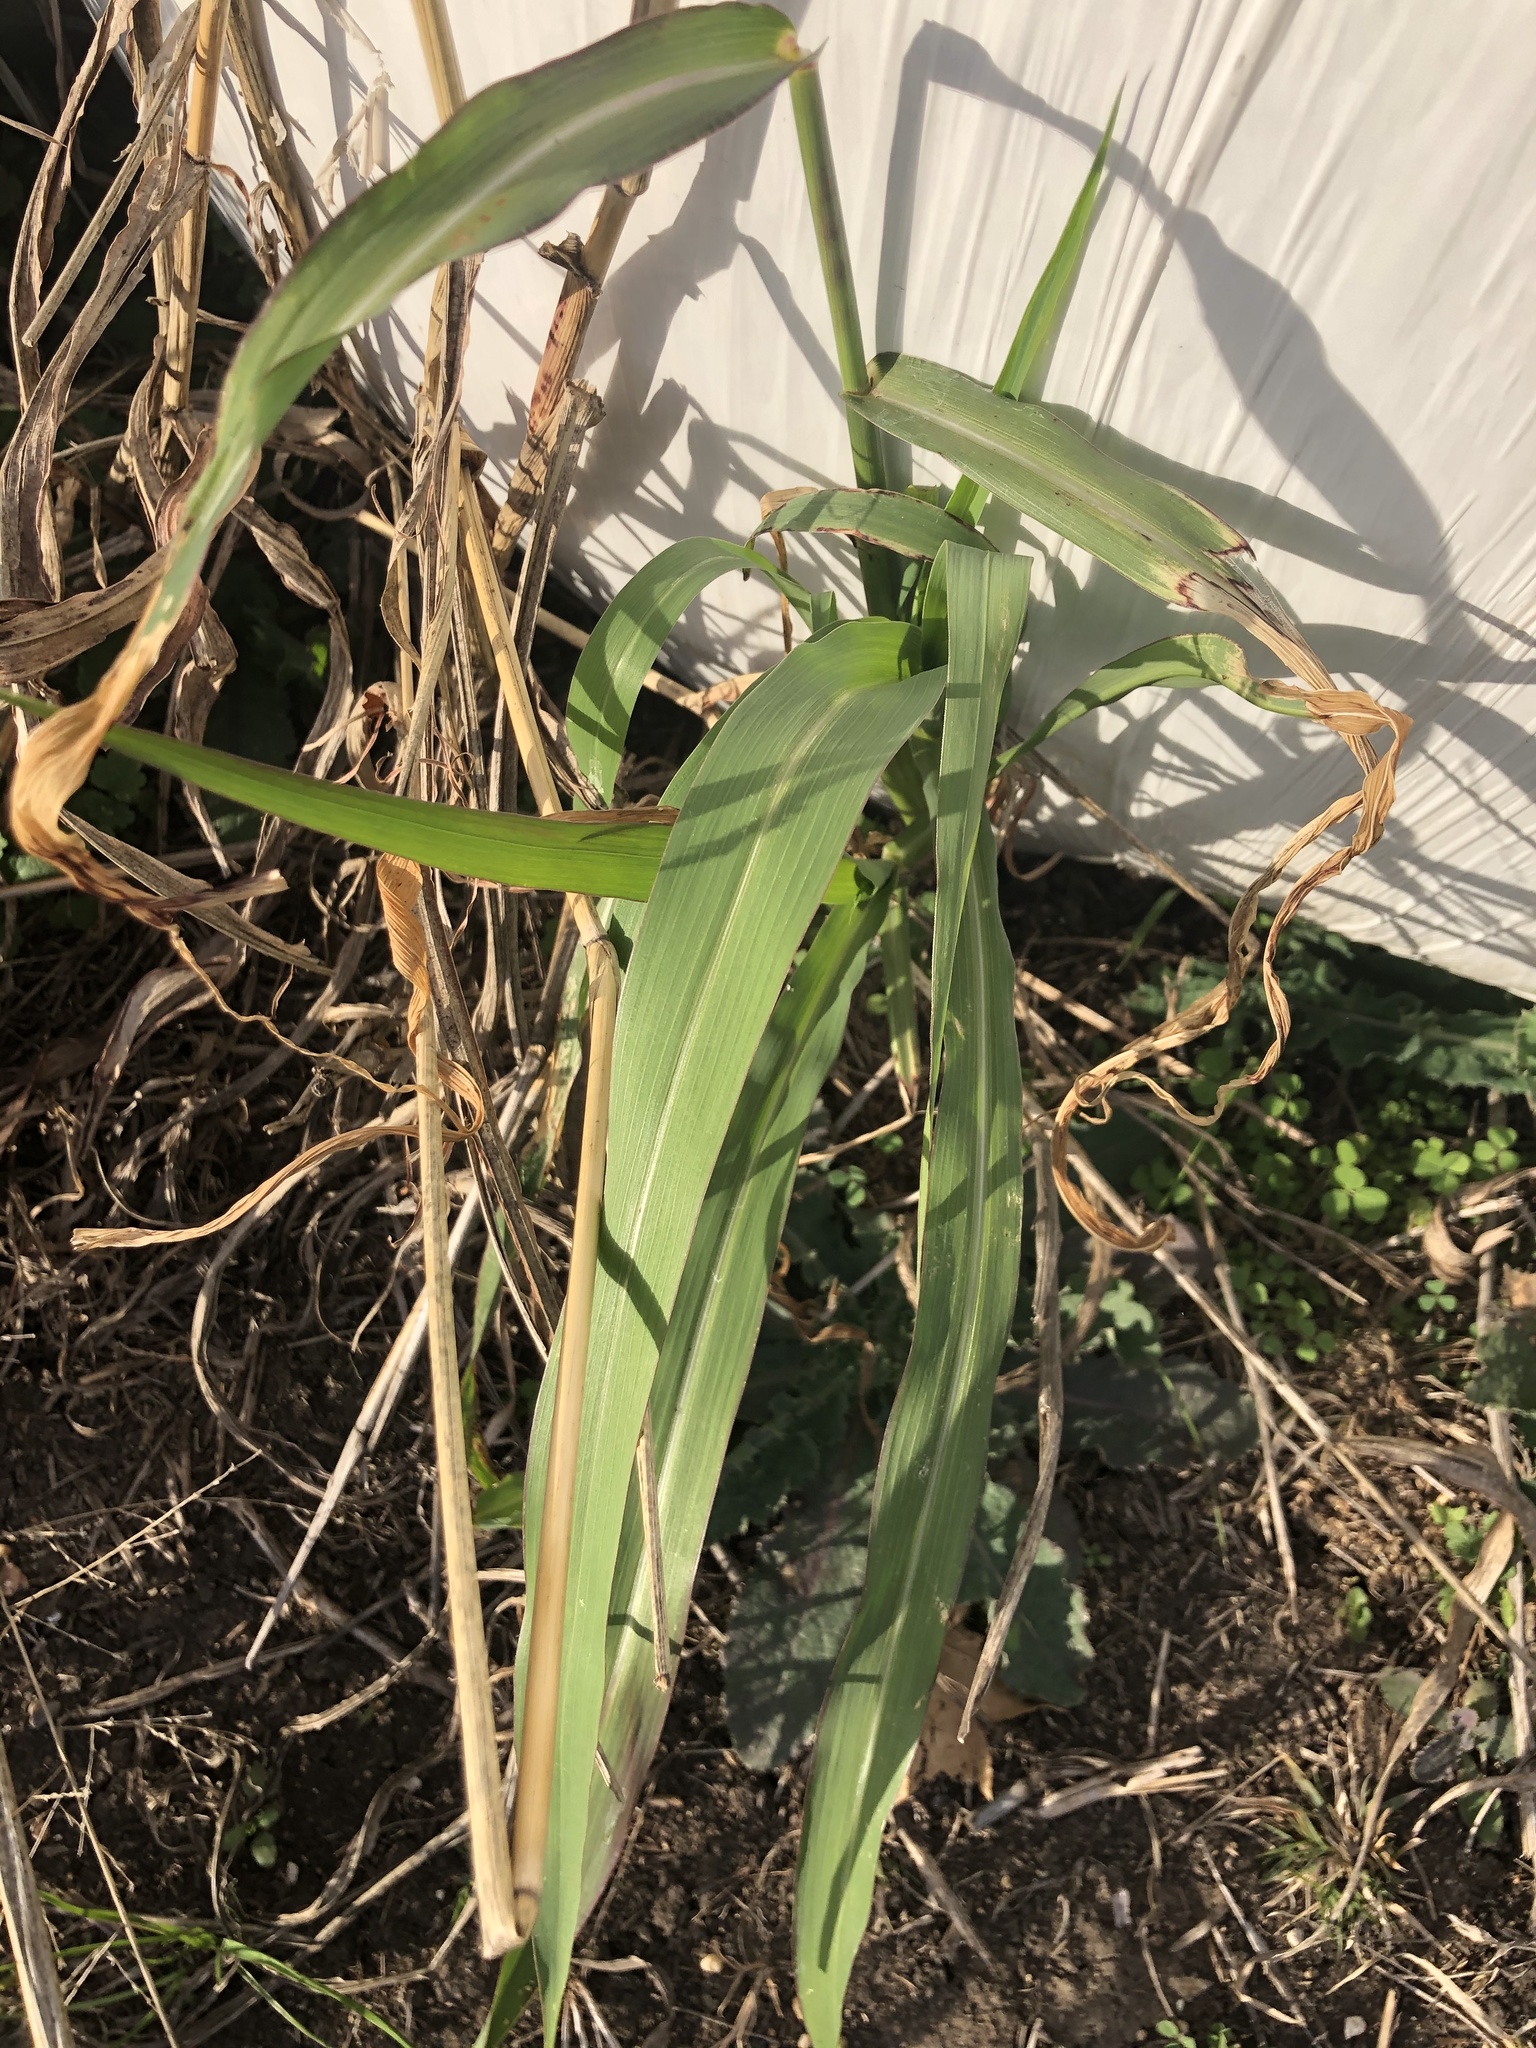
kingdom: Plantae
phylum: Tracheophyta
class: Liliopsida
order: Poales
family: Poaceae
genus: Sorghum
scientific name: Sorghum halepense
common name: Johnson-grass
